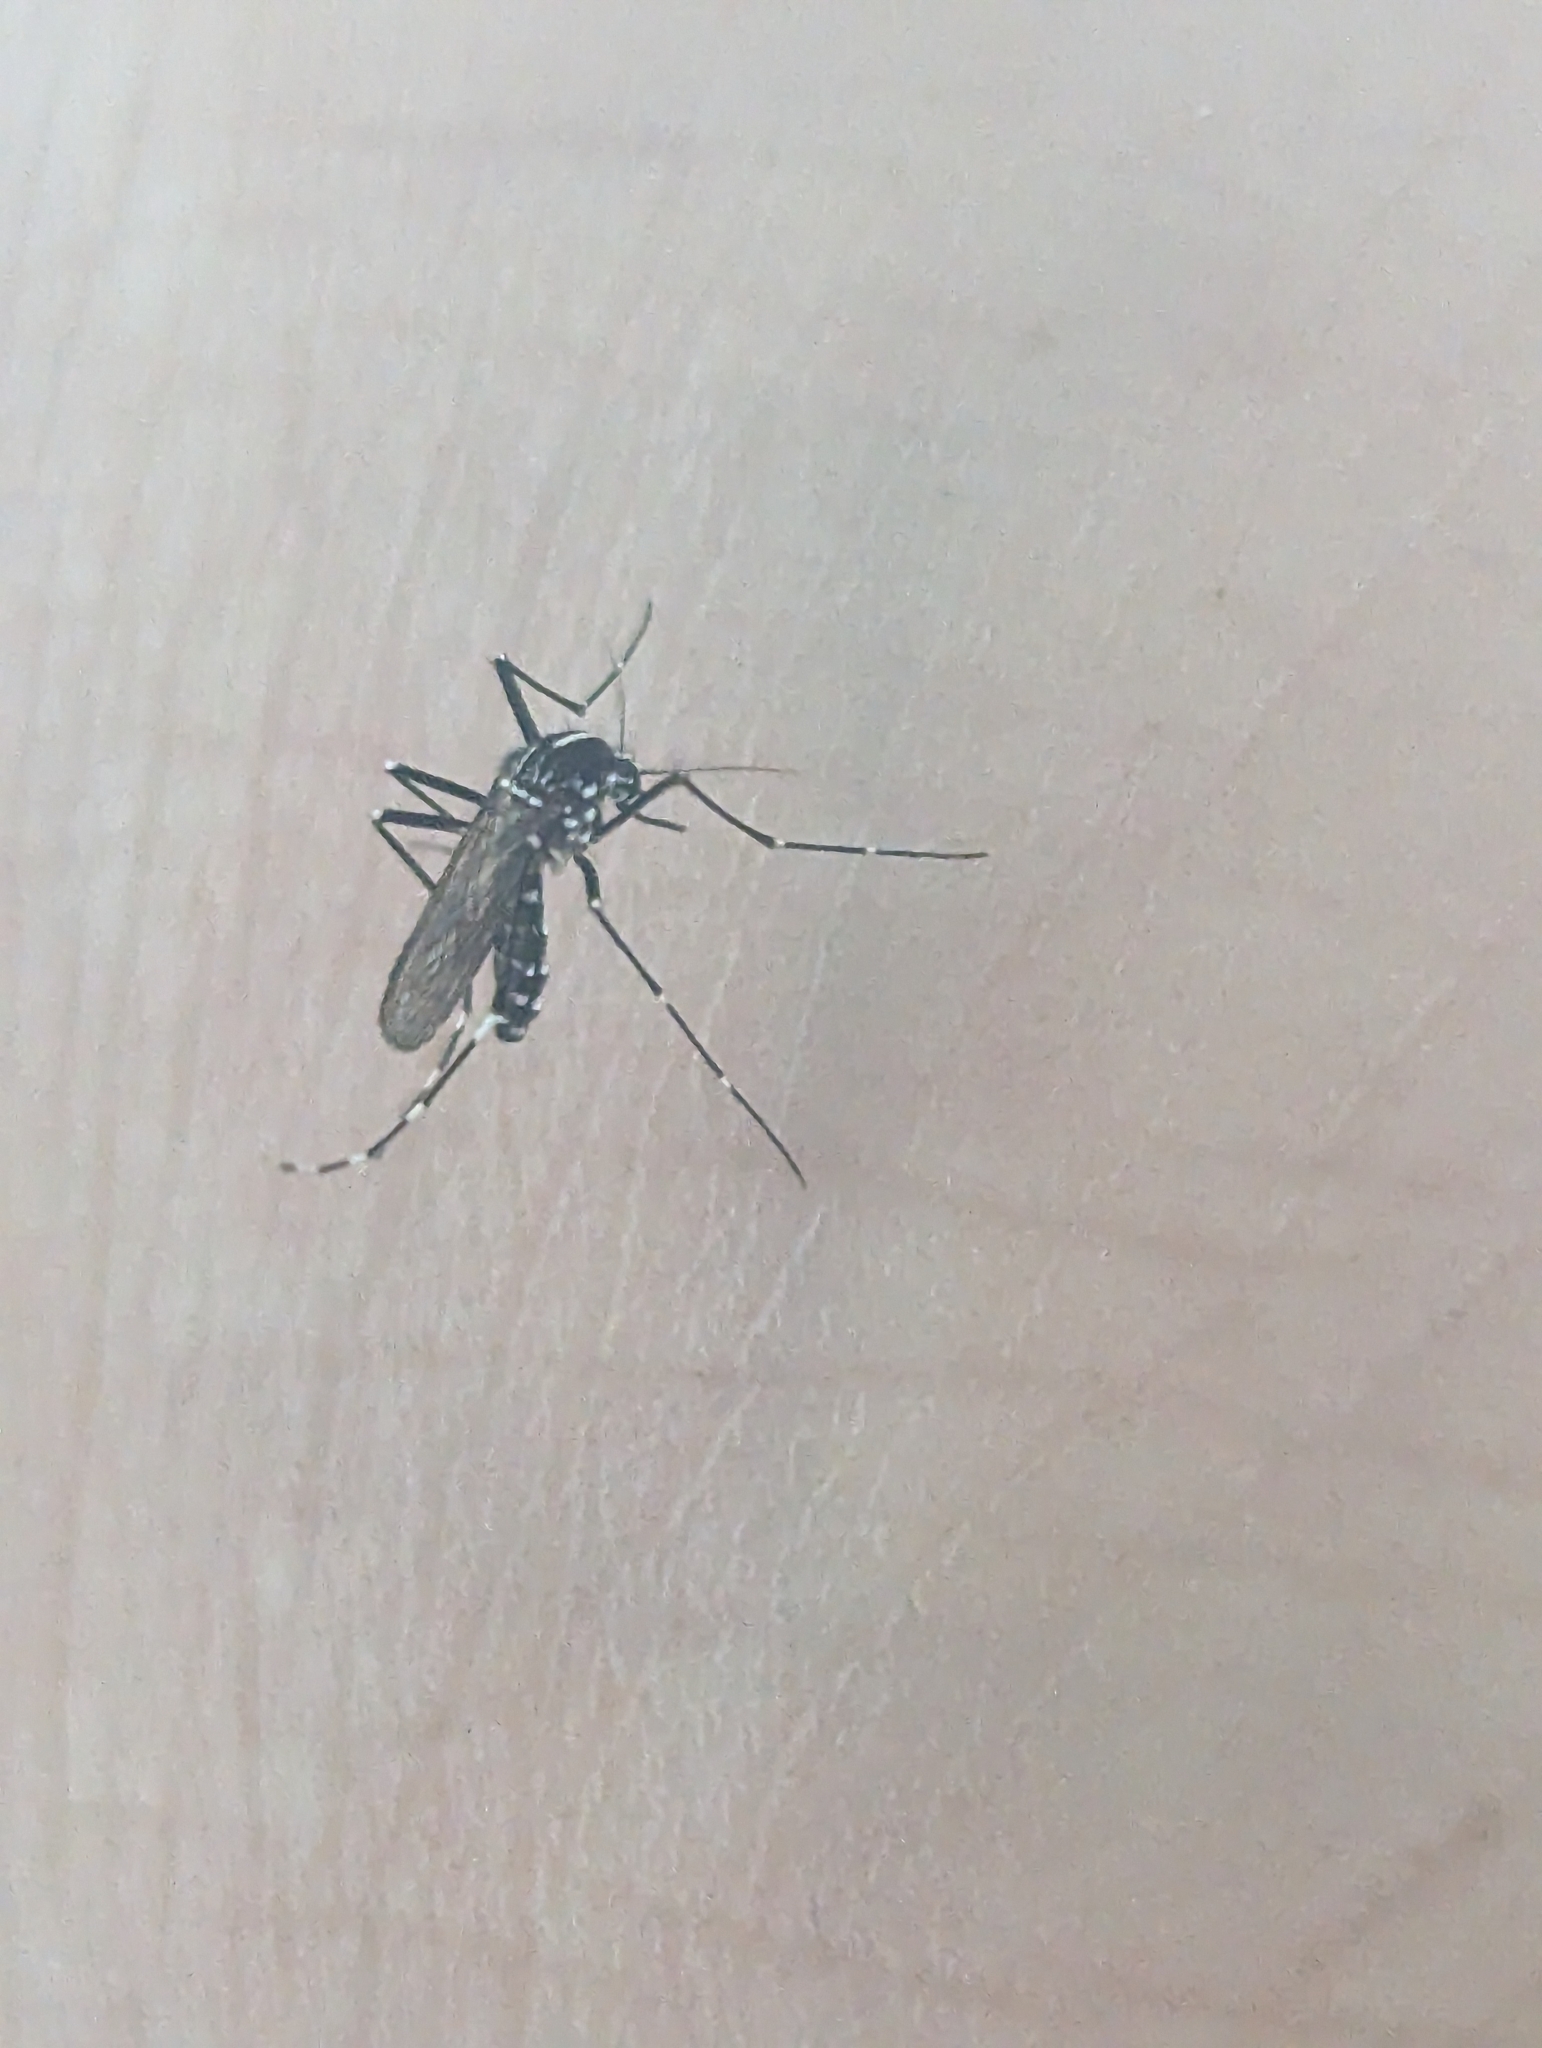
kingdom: Animalia
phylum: Arthropoda
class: Insecta
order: Diptera
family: Culicidae
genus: Aedes
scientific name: Aedes albopictus
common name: Tiger mosquito
